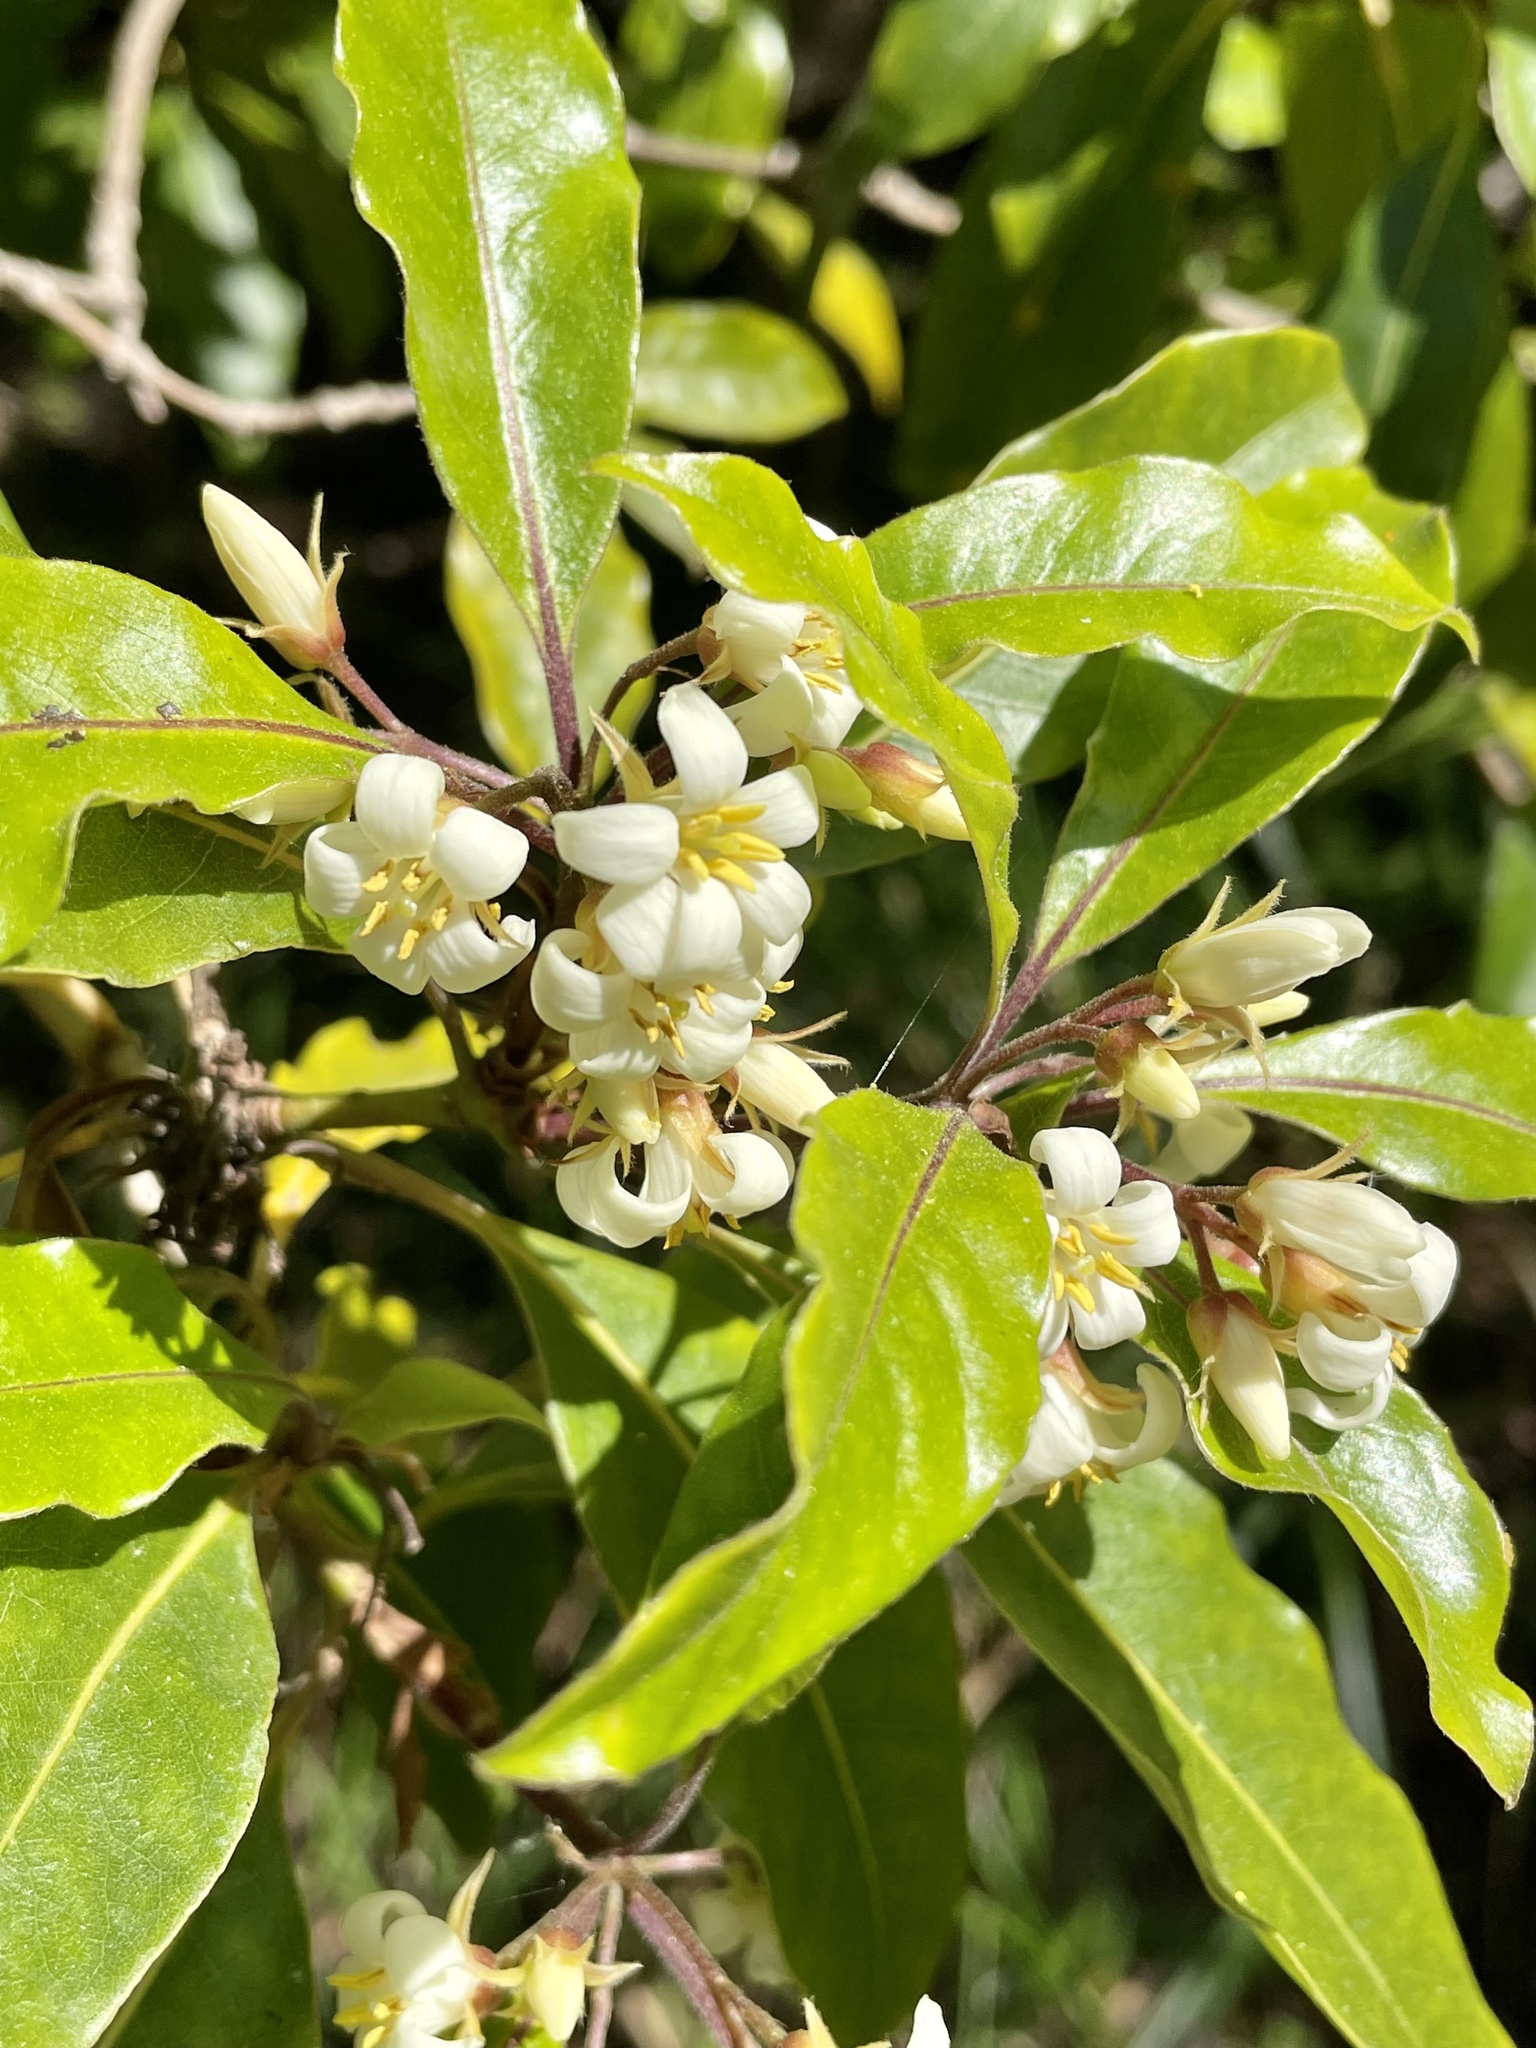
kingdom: Plantae
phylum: Tracheophyta
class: Magnoliopsida
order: Apiales
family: Pittosporaceae
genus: Pittosporum
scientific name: Pittosporum undulatum
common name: Australian cheesewood
